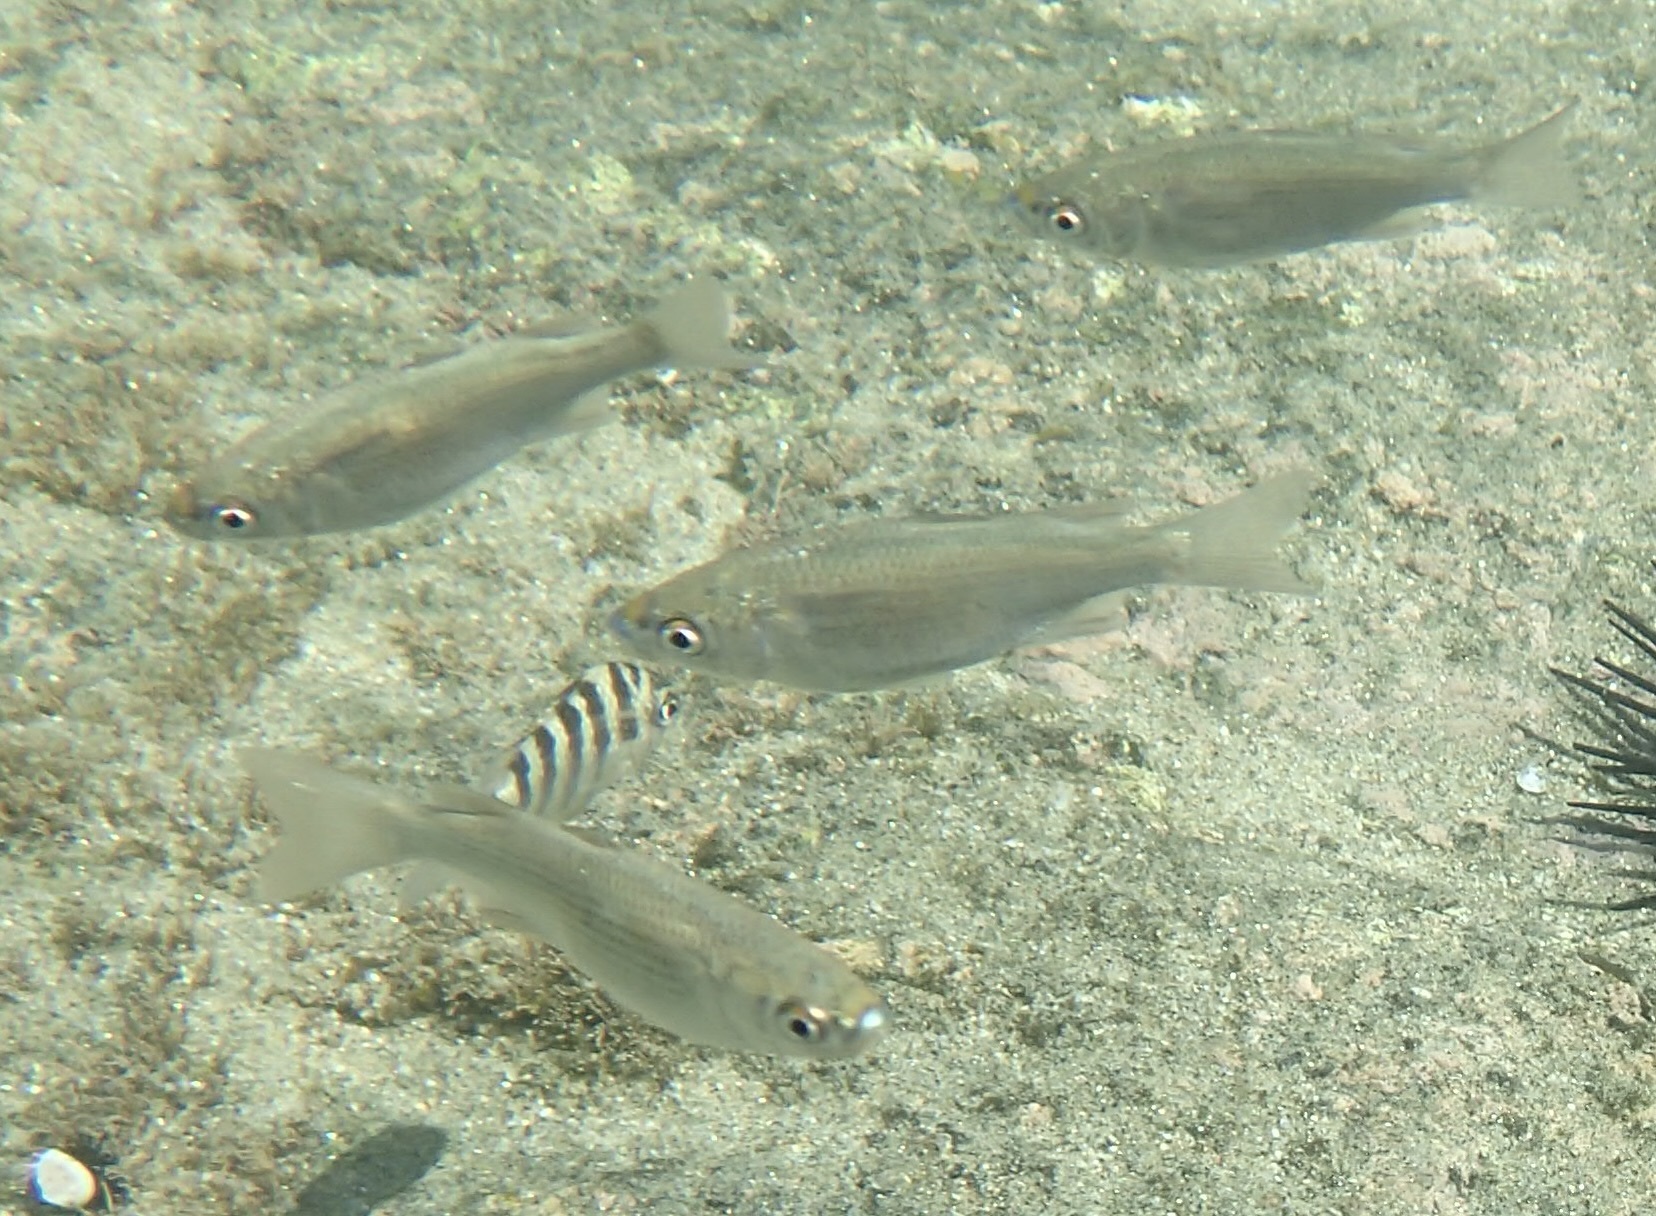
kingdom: Animalia
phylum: Chordata
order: Mugiliformes
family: Mugilidae
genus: Chaenomugil
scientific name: Chaenomugil proboscideus
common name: Snouted mullet
